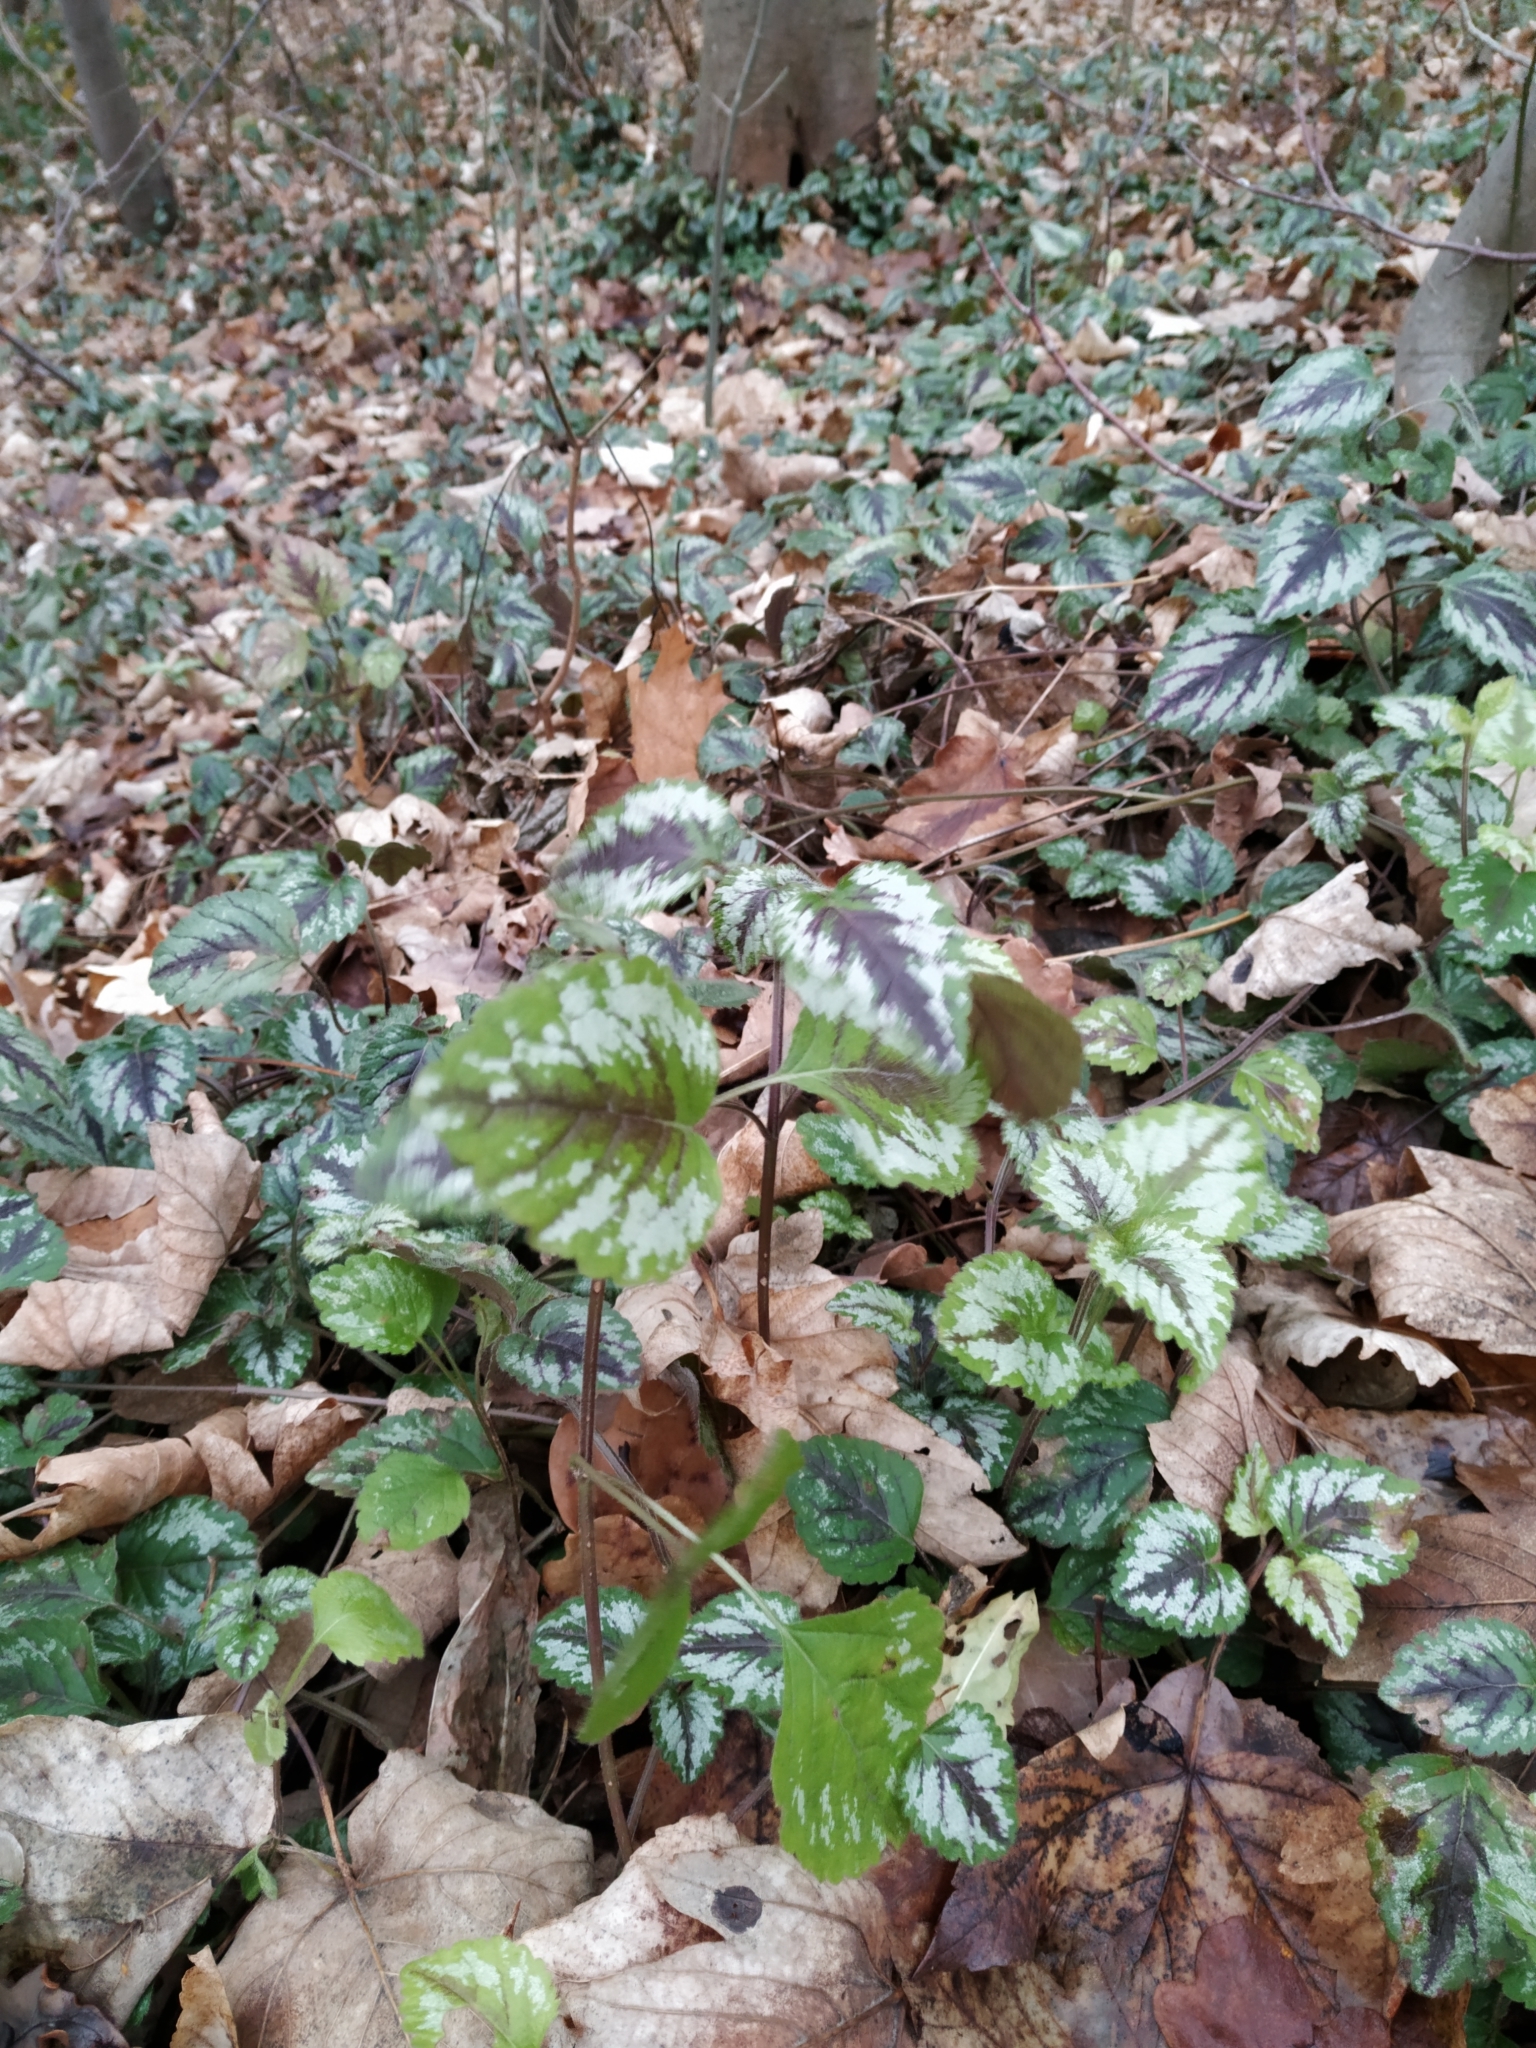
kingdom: Plantae
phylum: Tracheophyta
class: Magnoliopsida
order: Lamiales
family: Lamiaceae
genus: Lamium
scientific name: Lamium galeobdolon
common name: Yellow archangel
